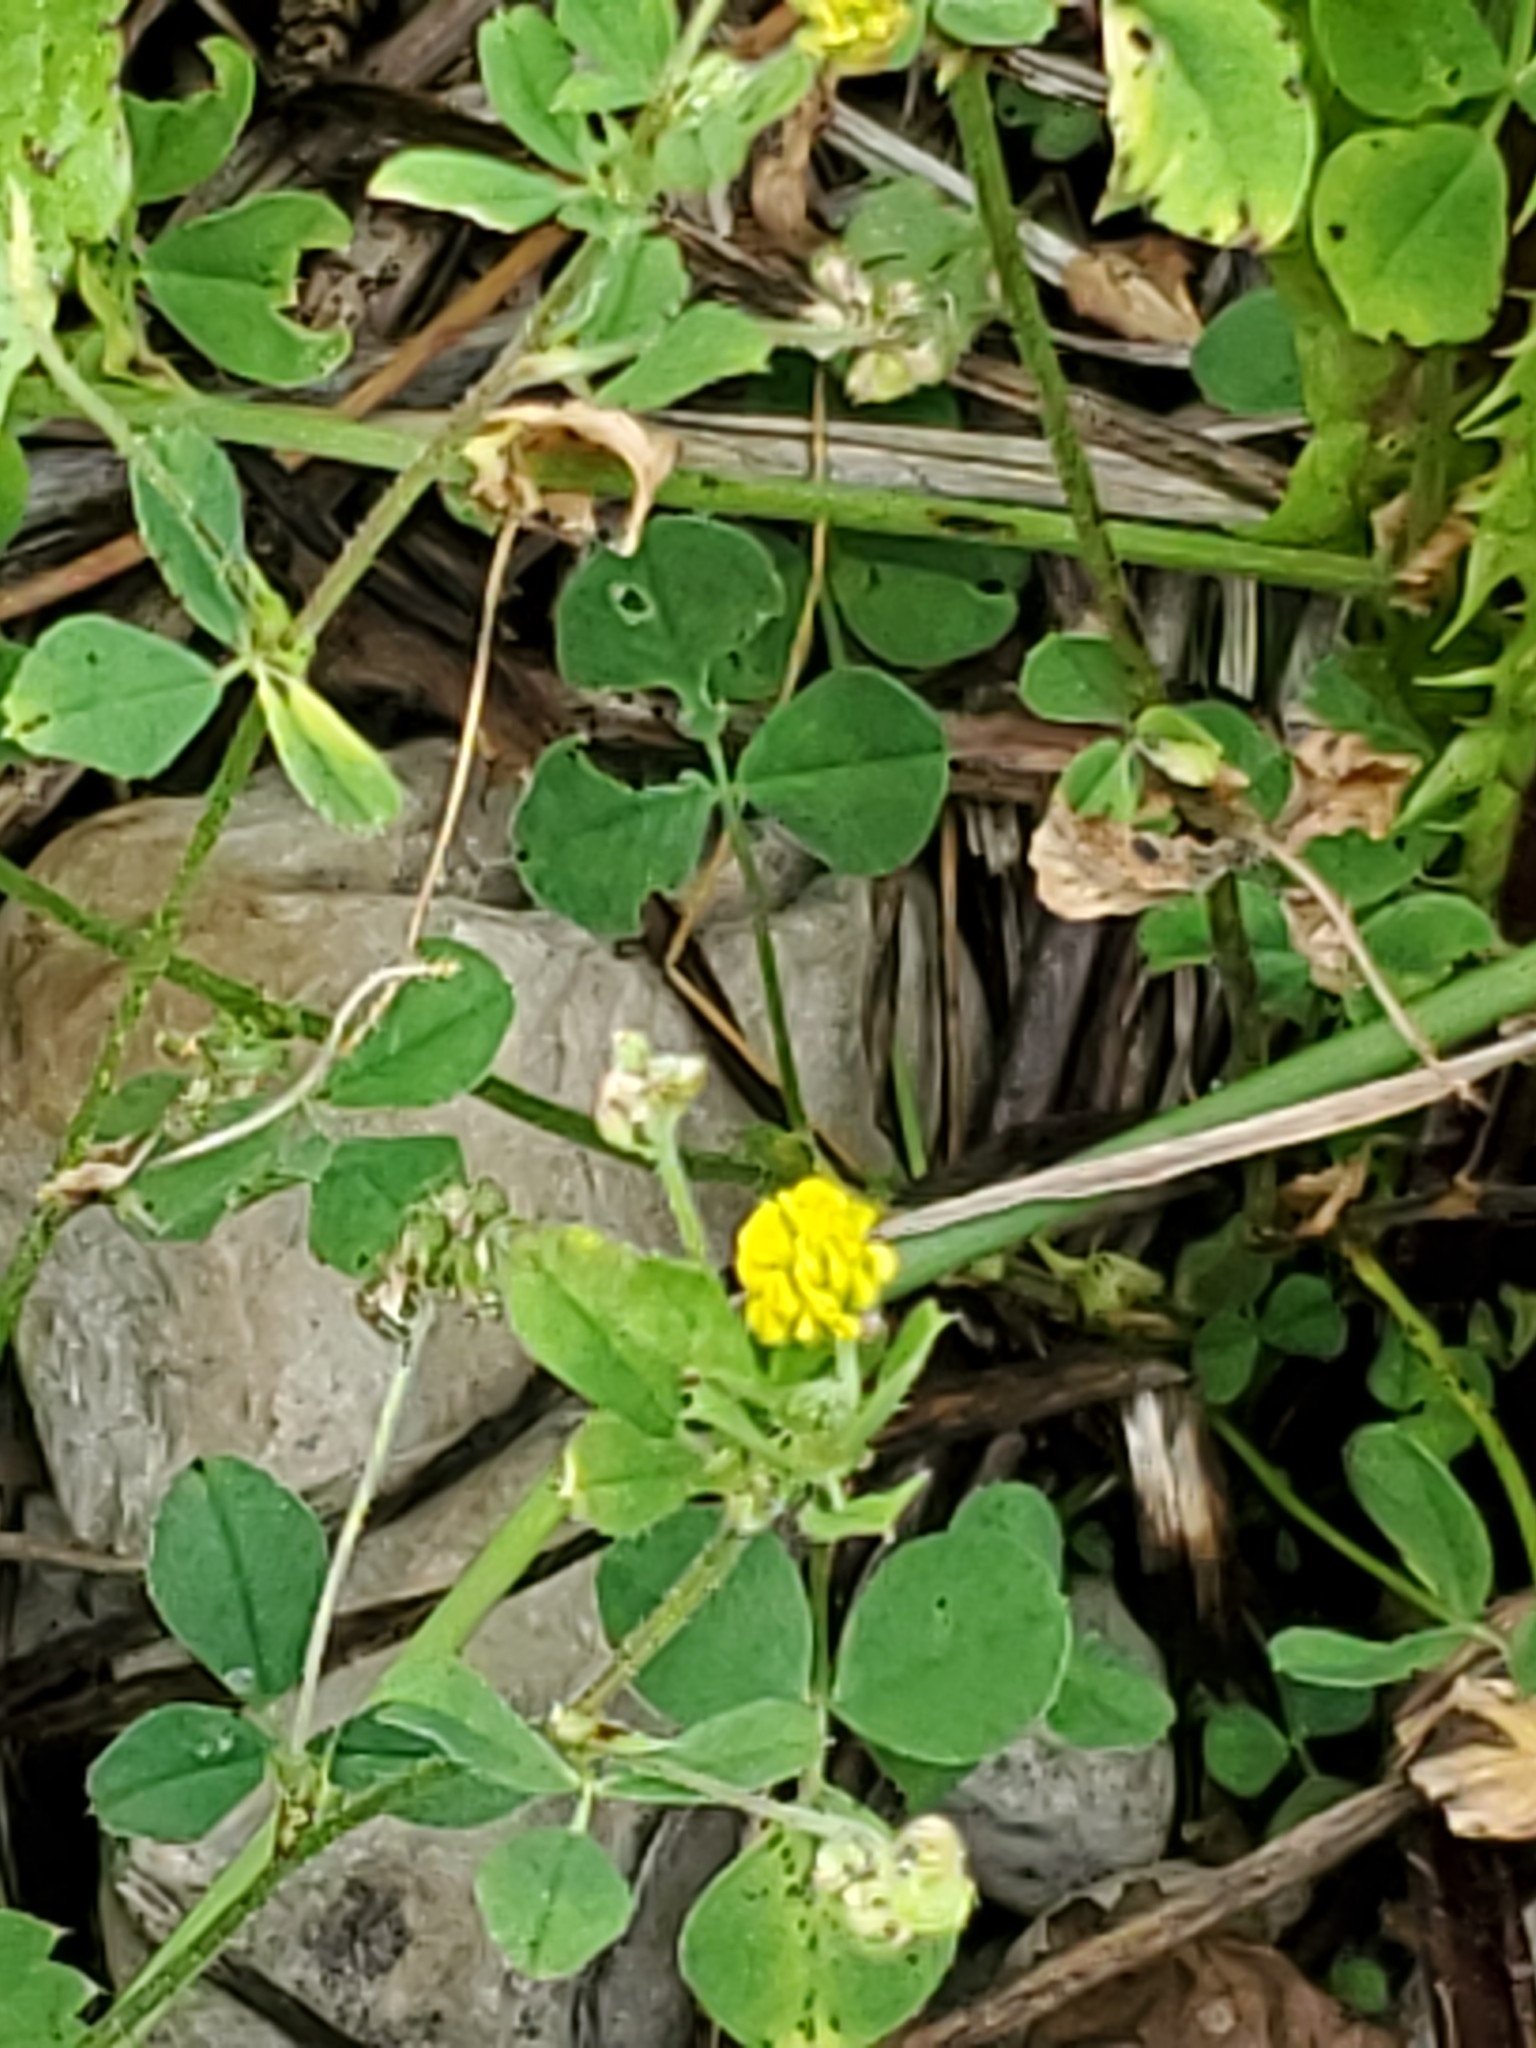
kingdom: Plantae
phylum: Tracheophyta
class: Magnoliopsida
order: Fabales
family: Fabaceae
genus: Medicago
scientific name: Medicago lupulina
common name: Black medick
